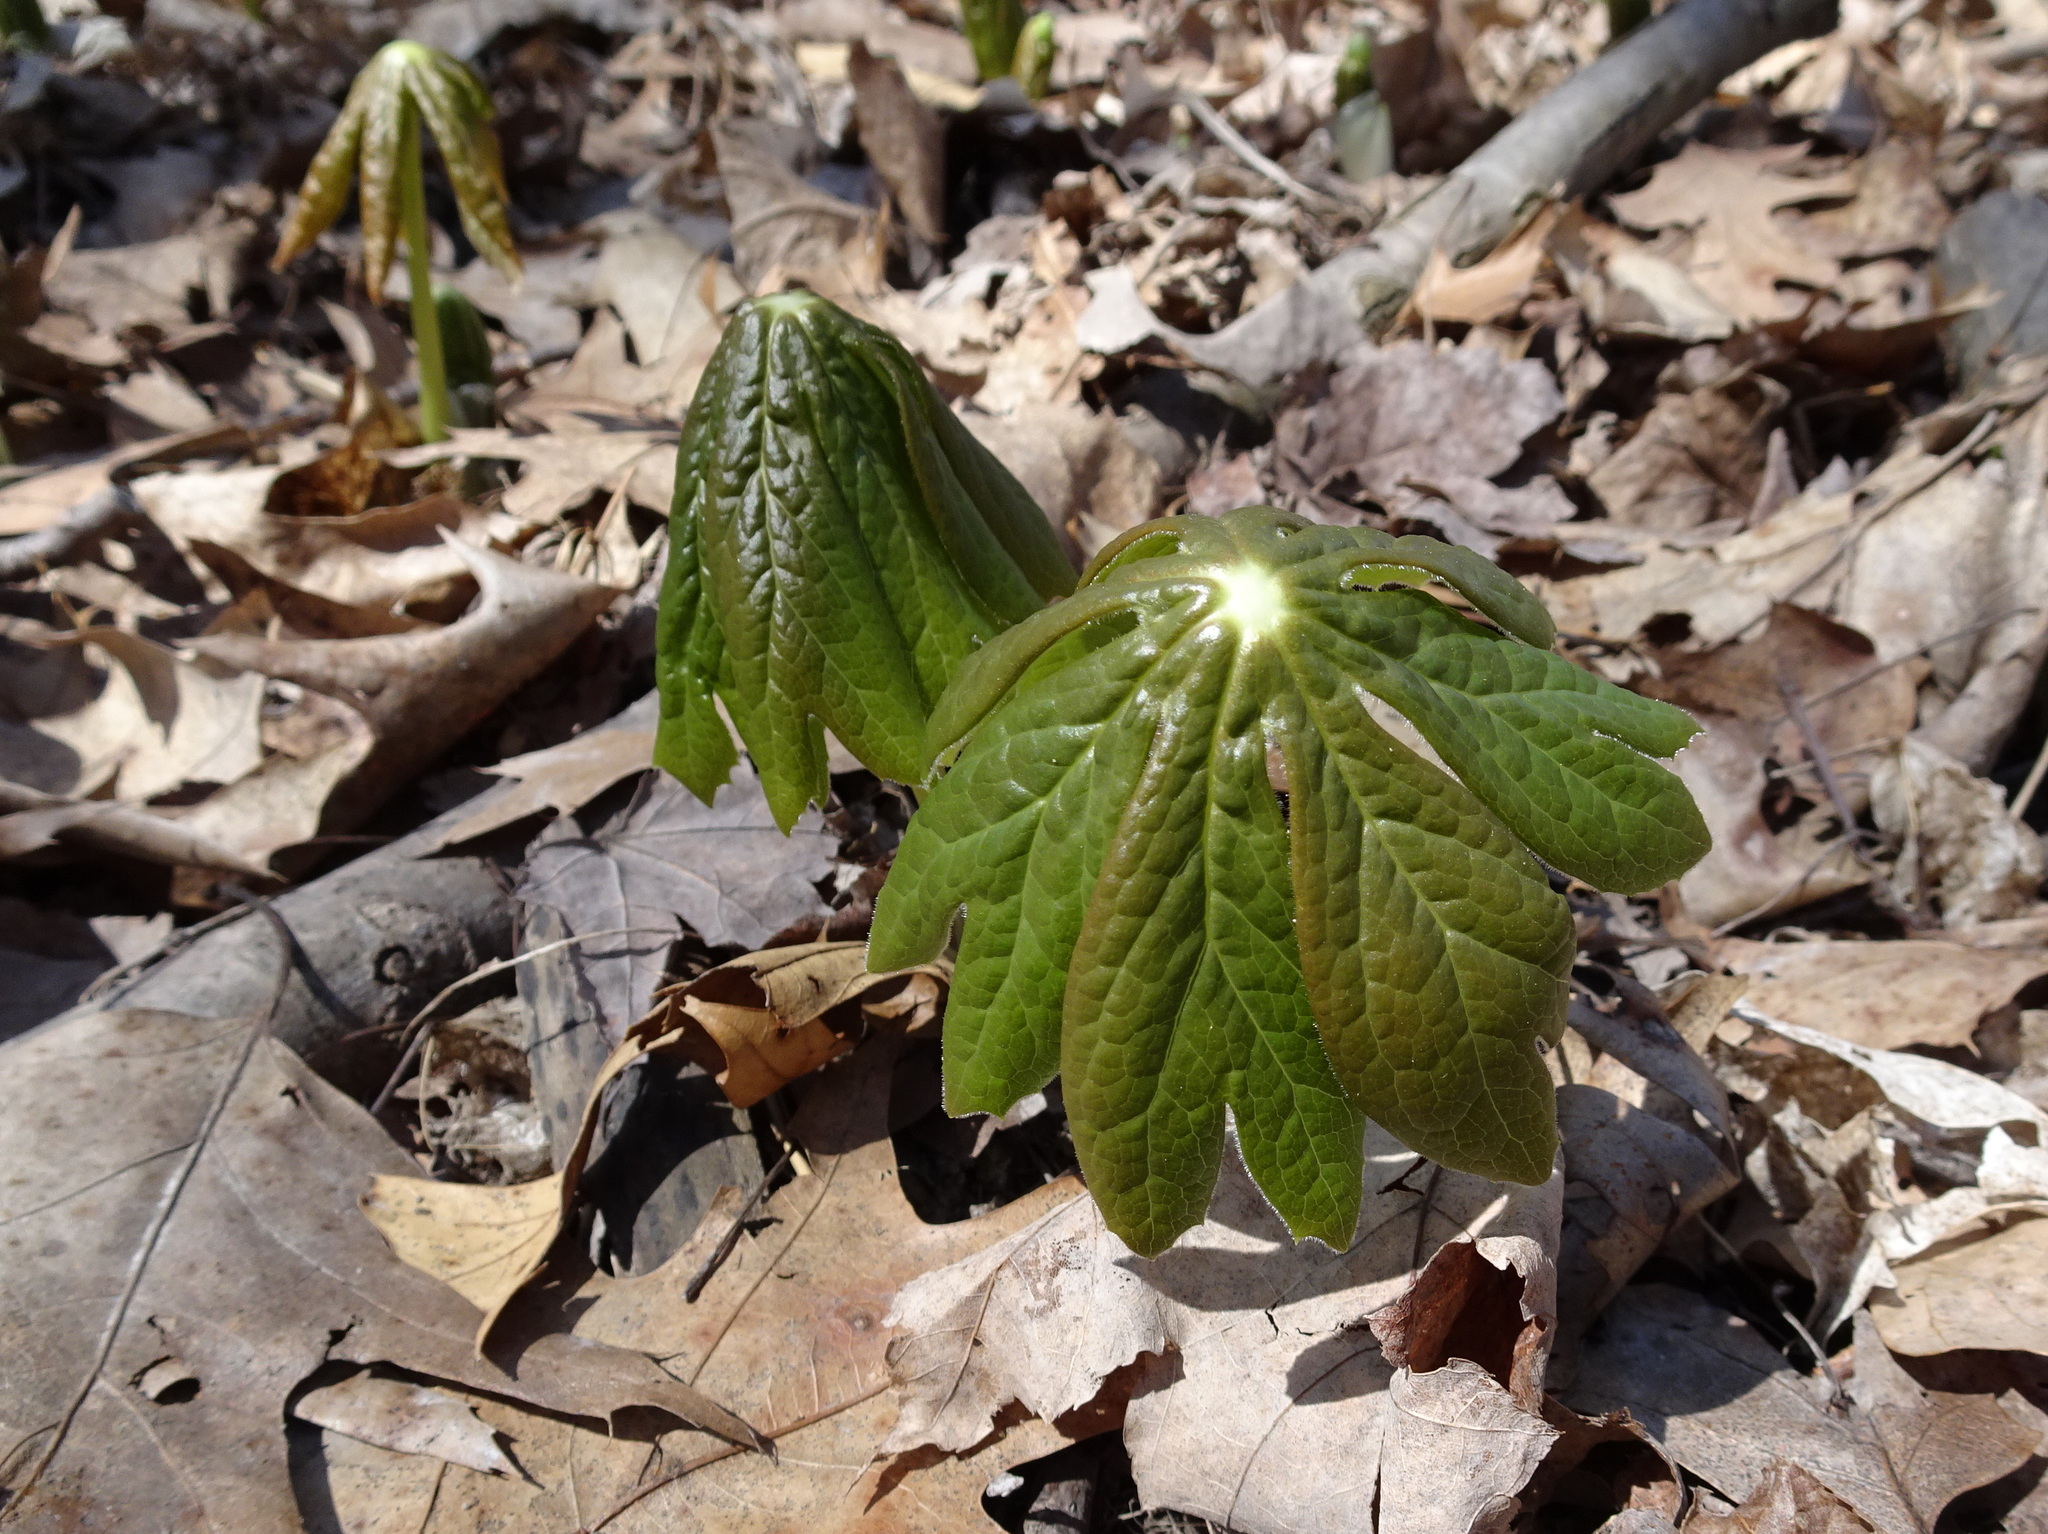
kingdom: Plantae
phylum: Tracheophyta
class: Magnoliopsida
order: Ranunculales
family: Berberidaceae
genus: Podophyllum
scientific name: Podophyllum peltatum
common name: Wild mandrake
